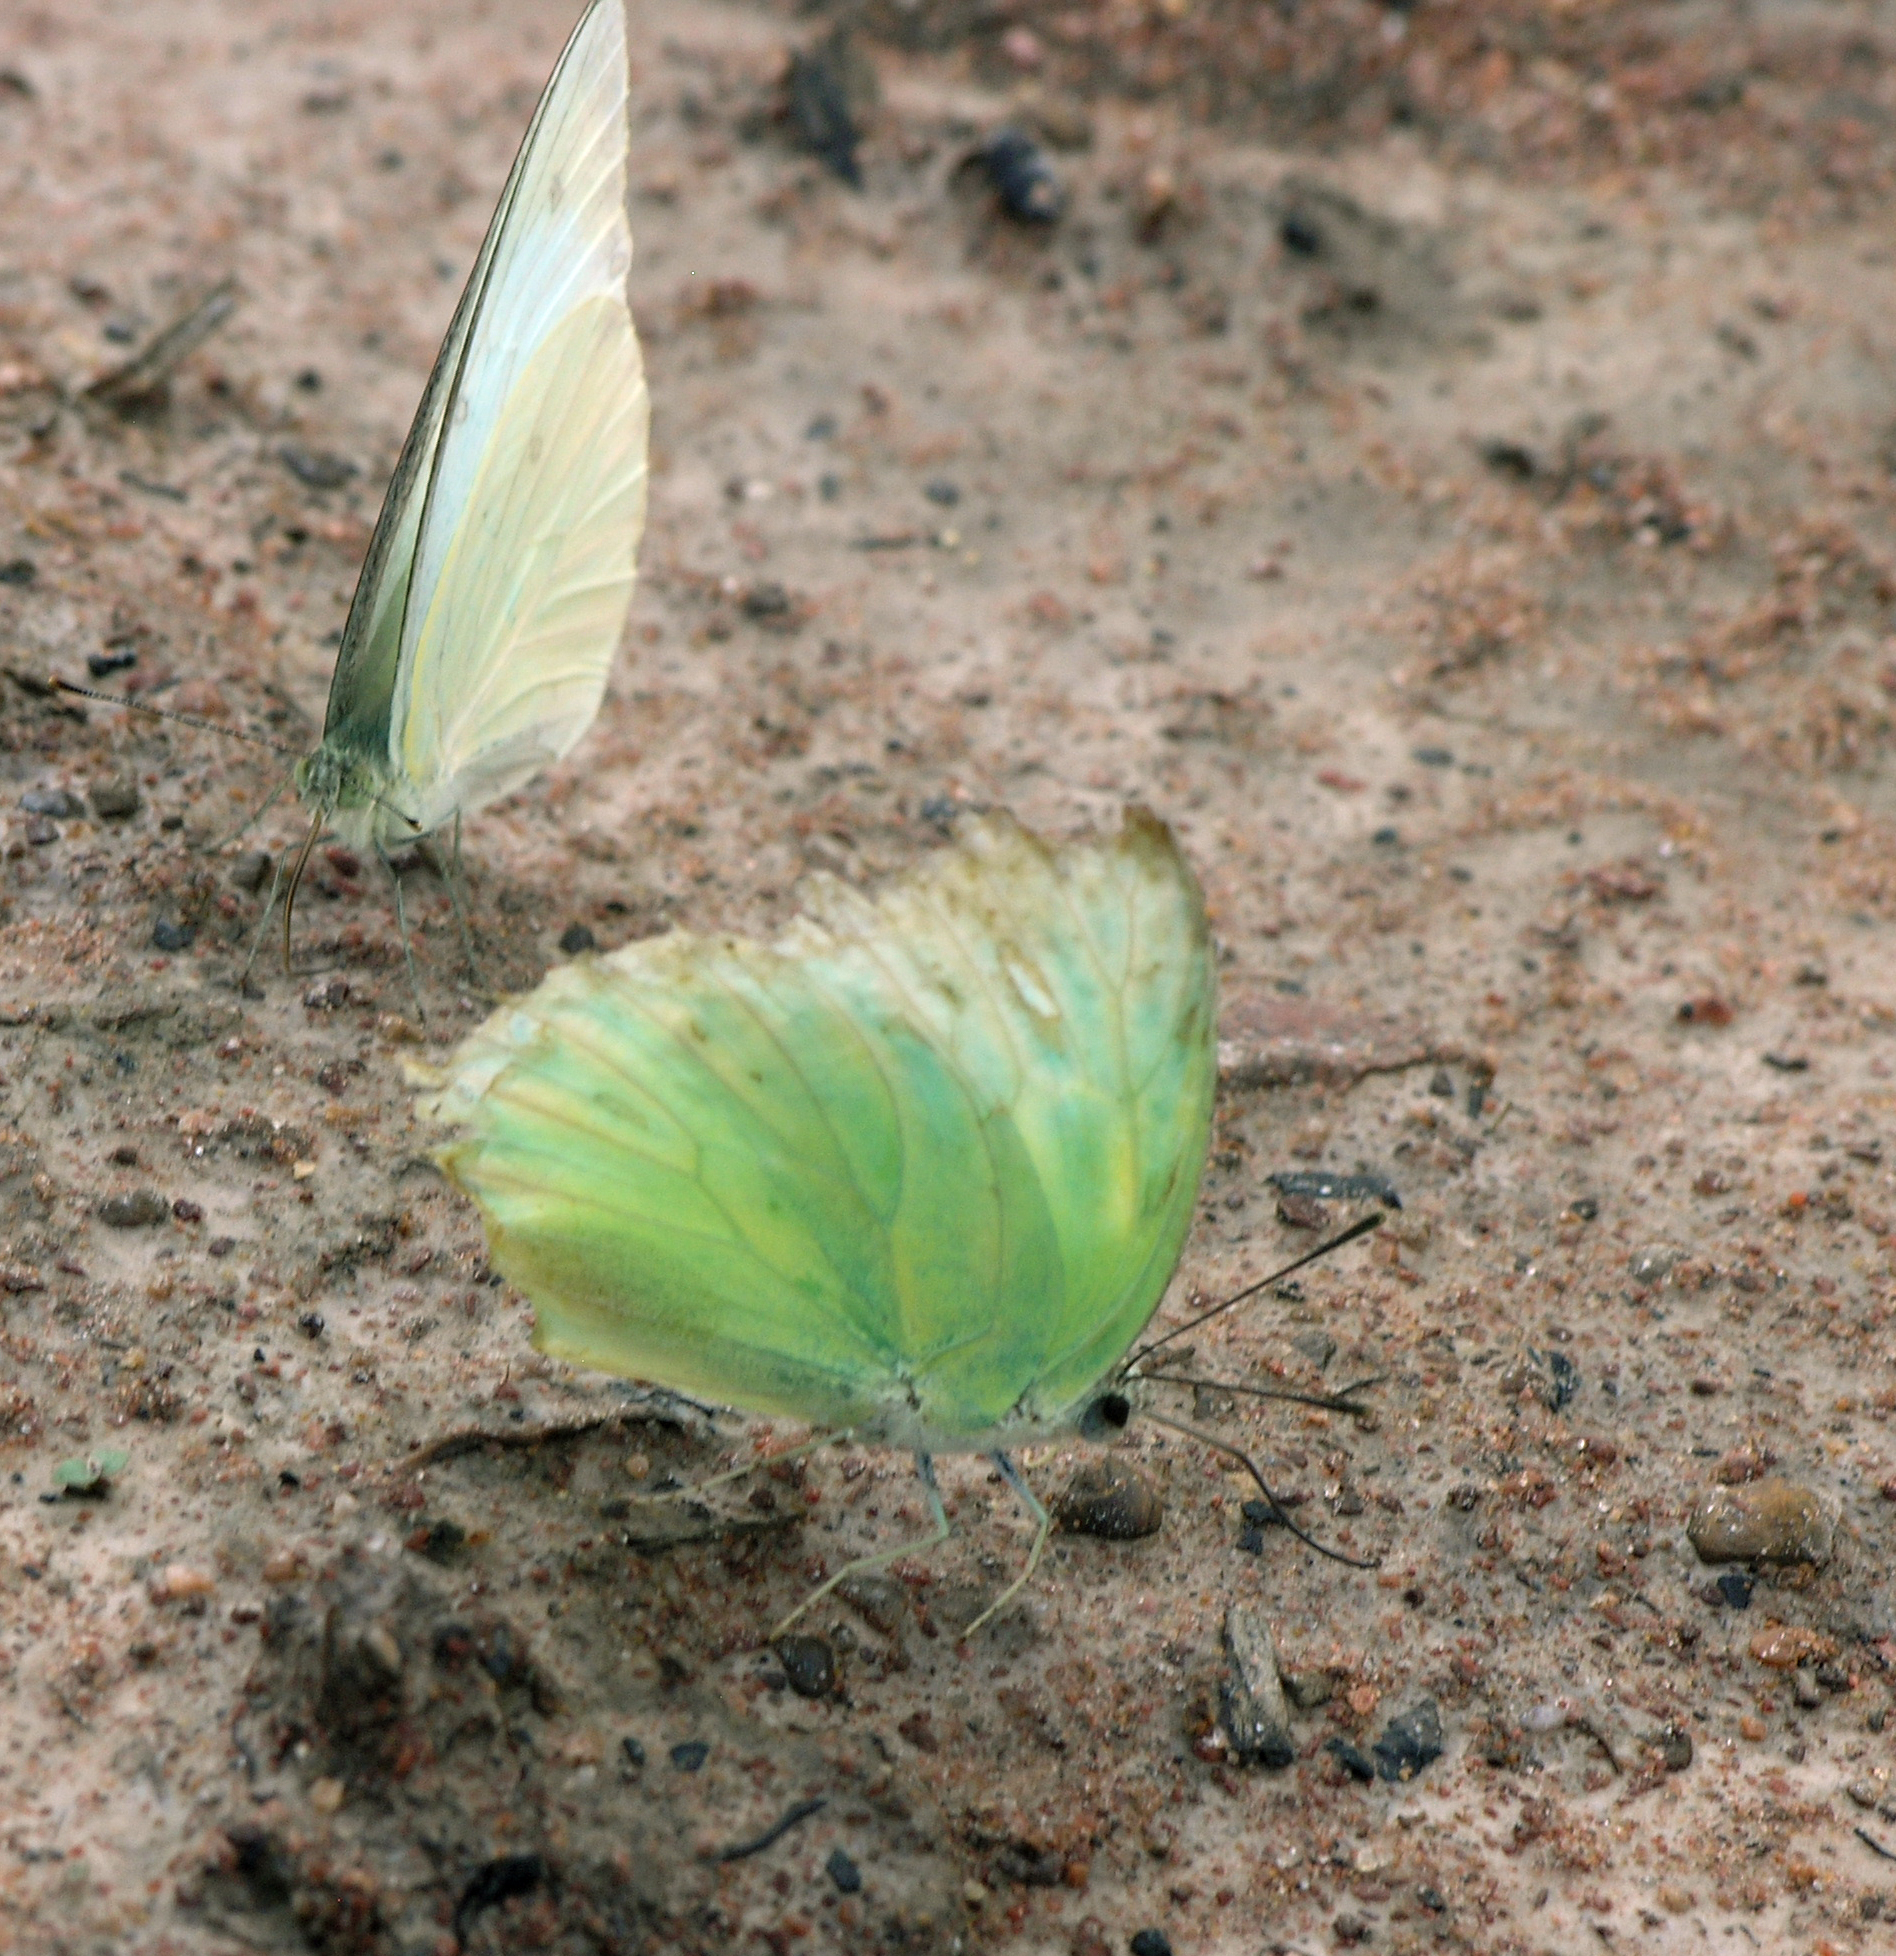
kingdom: Animalia
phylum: Arthropoda
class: Insecta
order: Lepidoptera
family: Pieridae
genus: Catopsilia
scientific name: Catopsilia pomona
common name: Common emigrant
